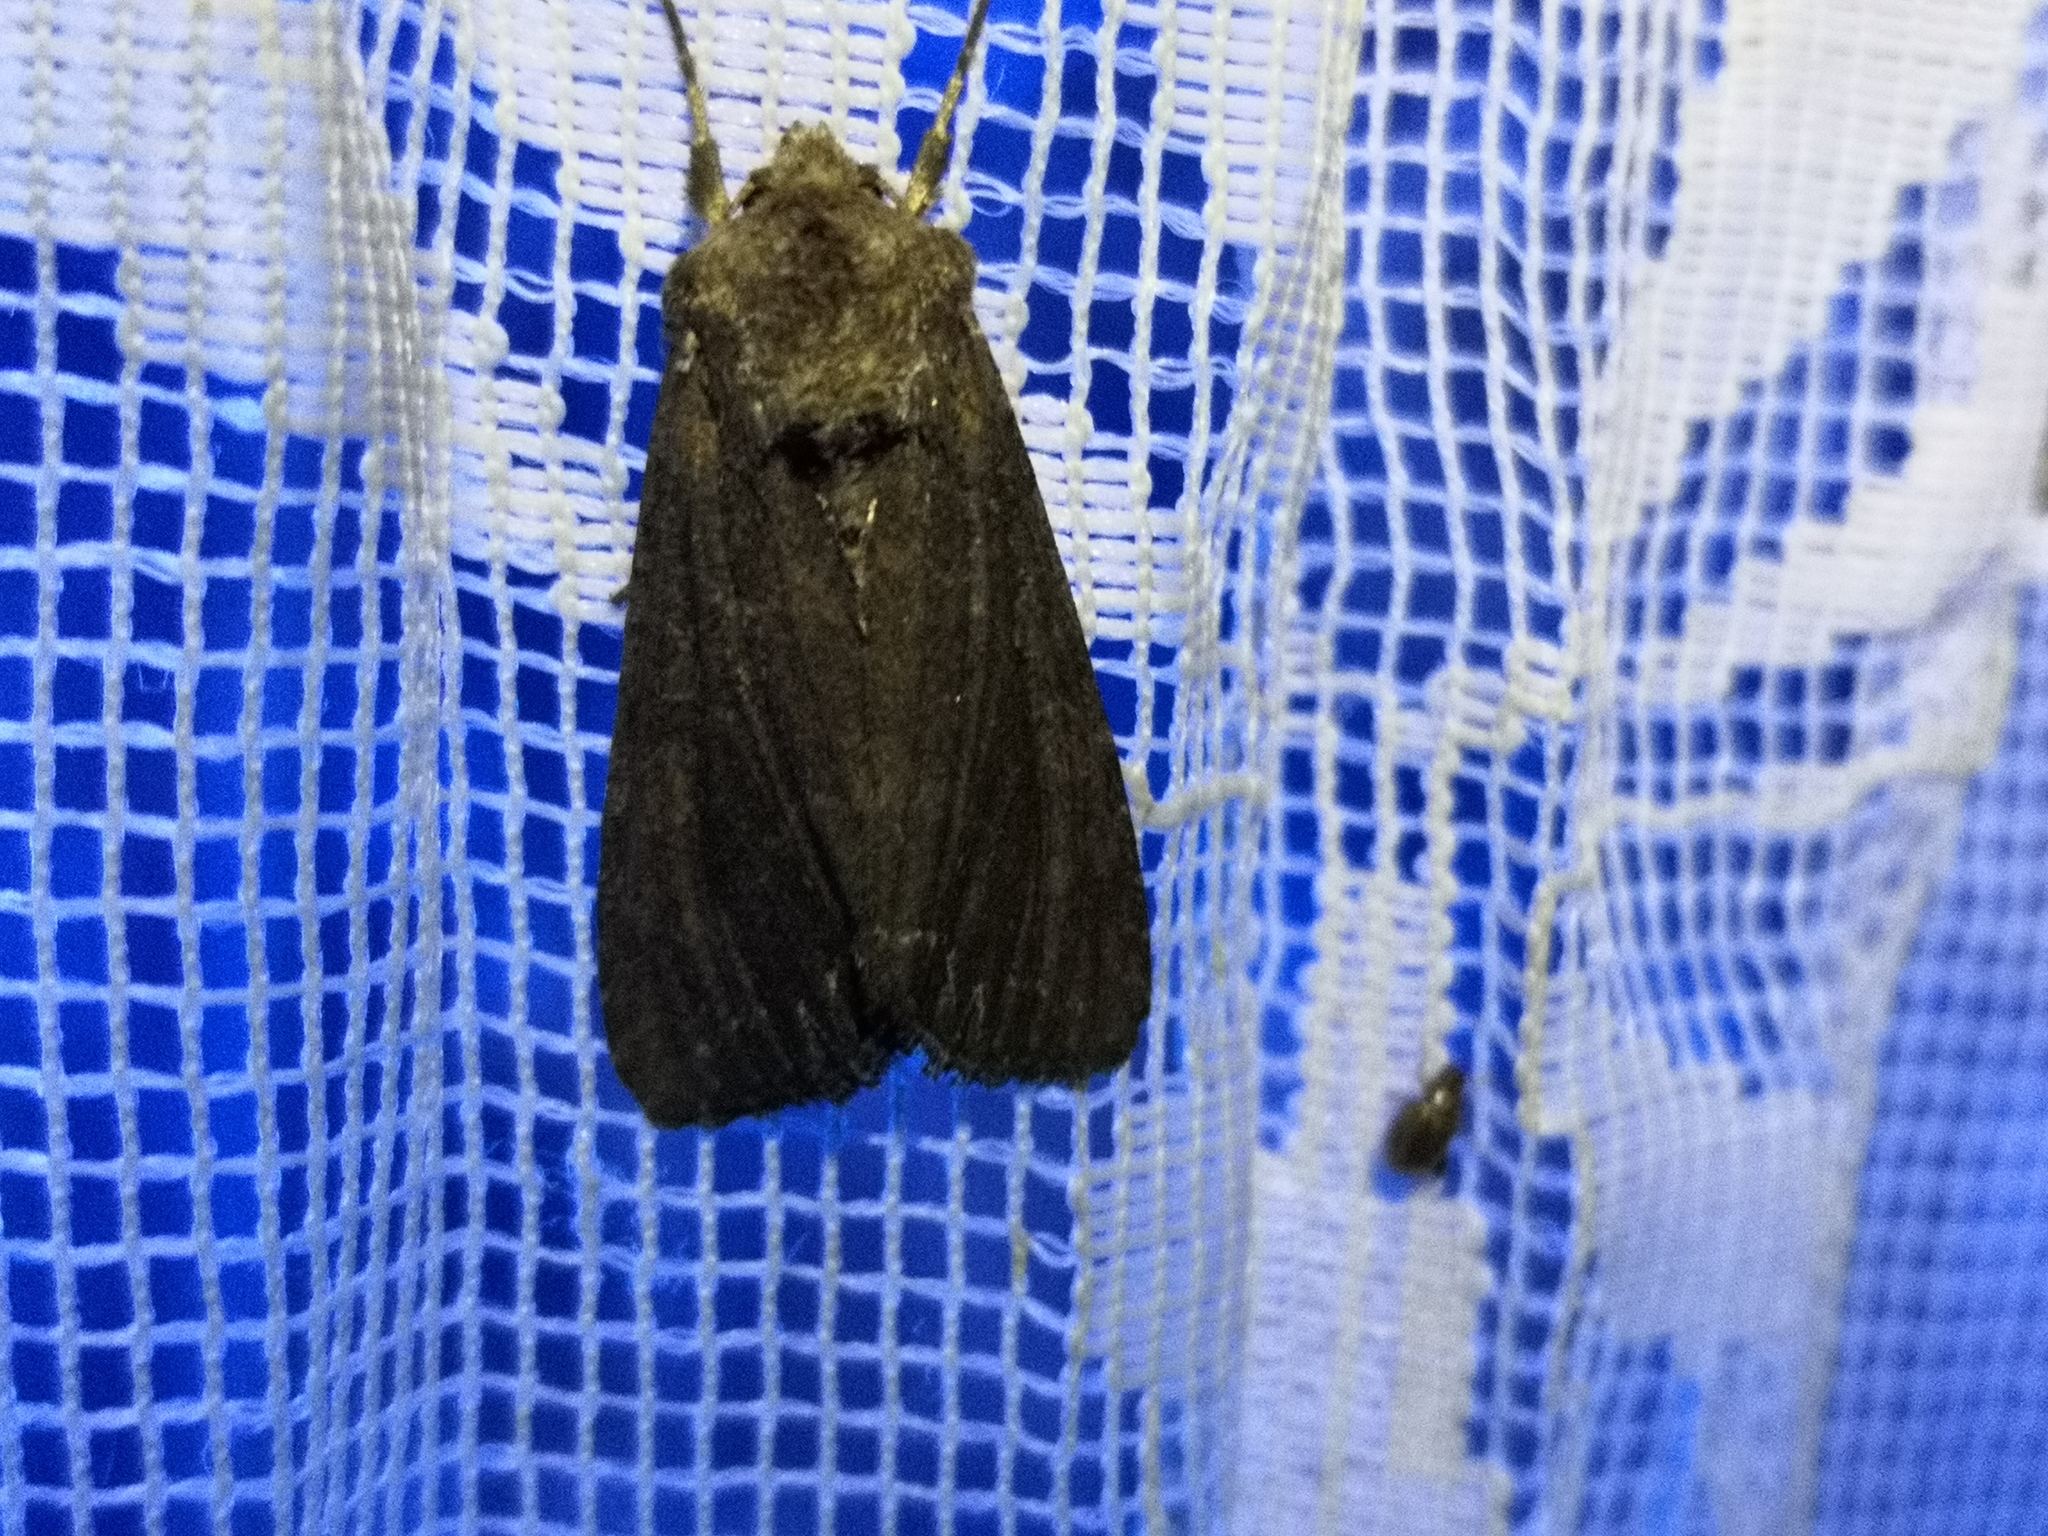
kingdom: Animalia
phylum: Arthropoda
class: Insecta
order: Lepidoptera
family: Noctuidae
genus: Lacanobia
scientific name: Lacanobia suasa
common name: Dog's tooth
